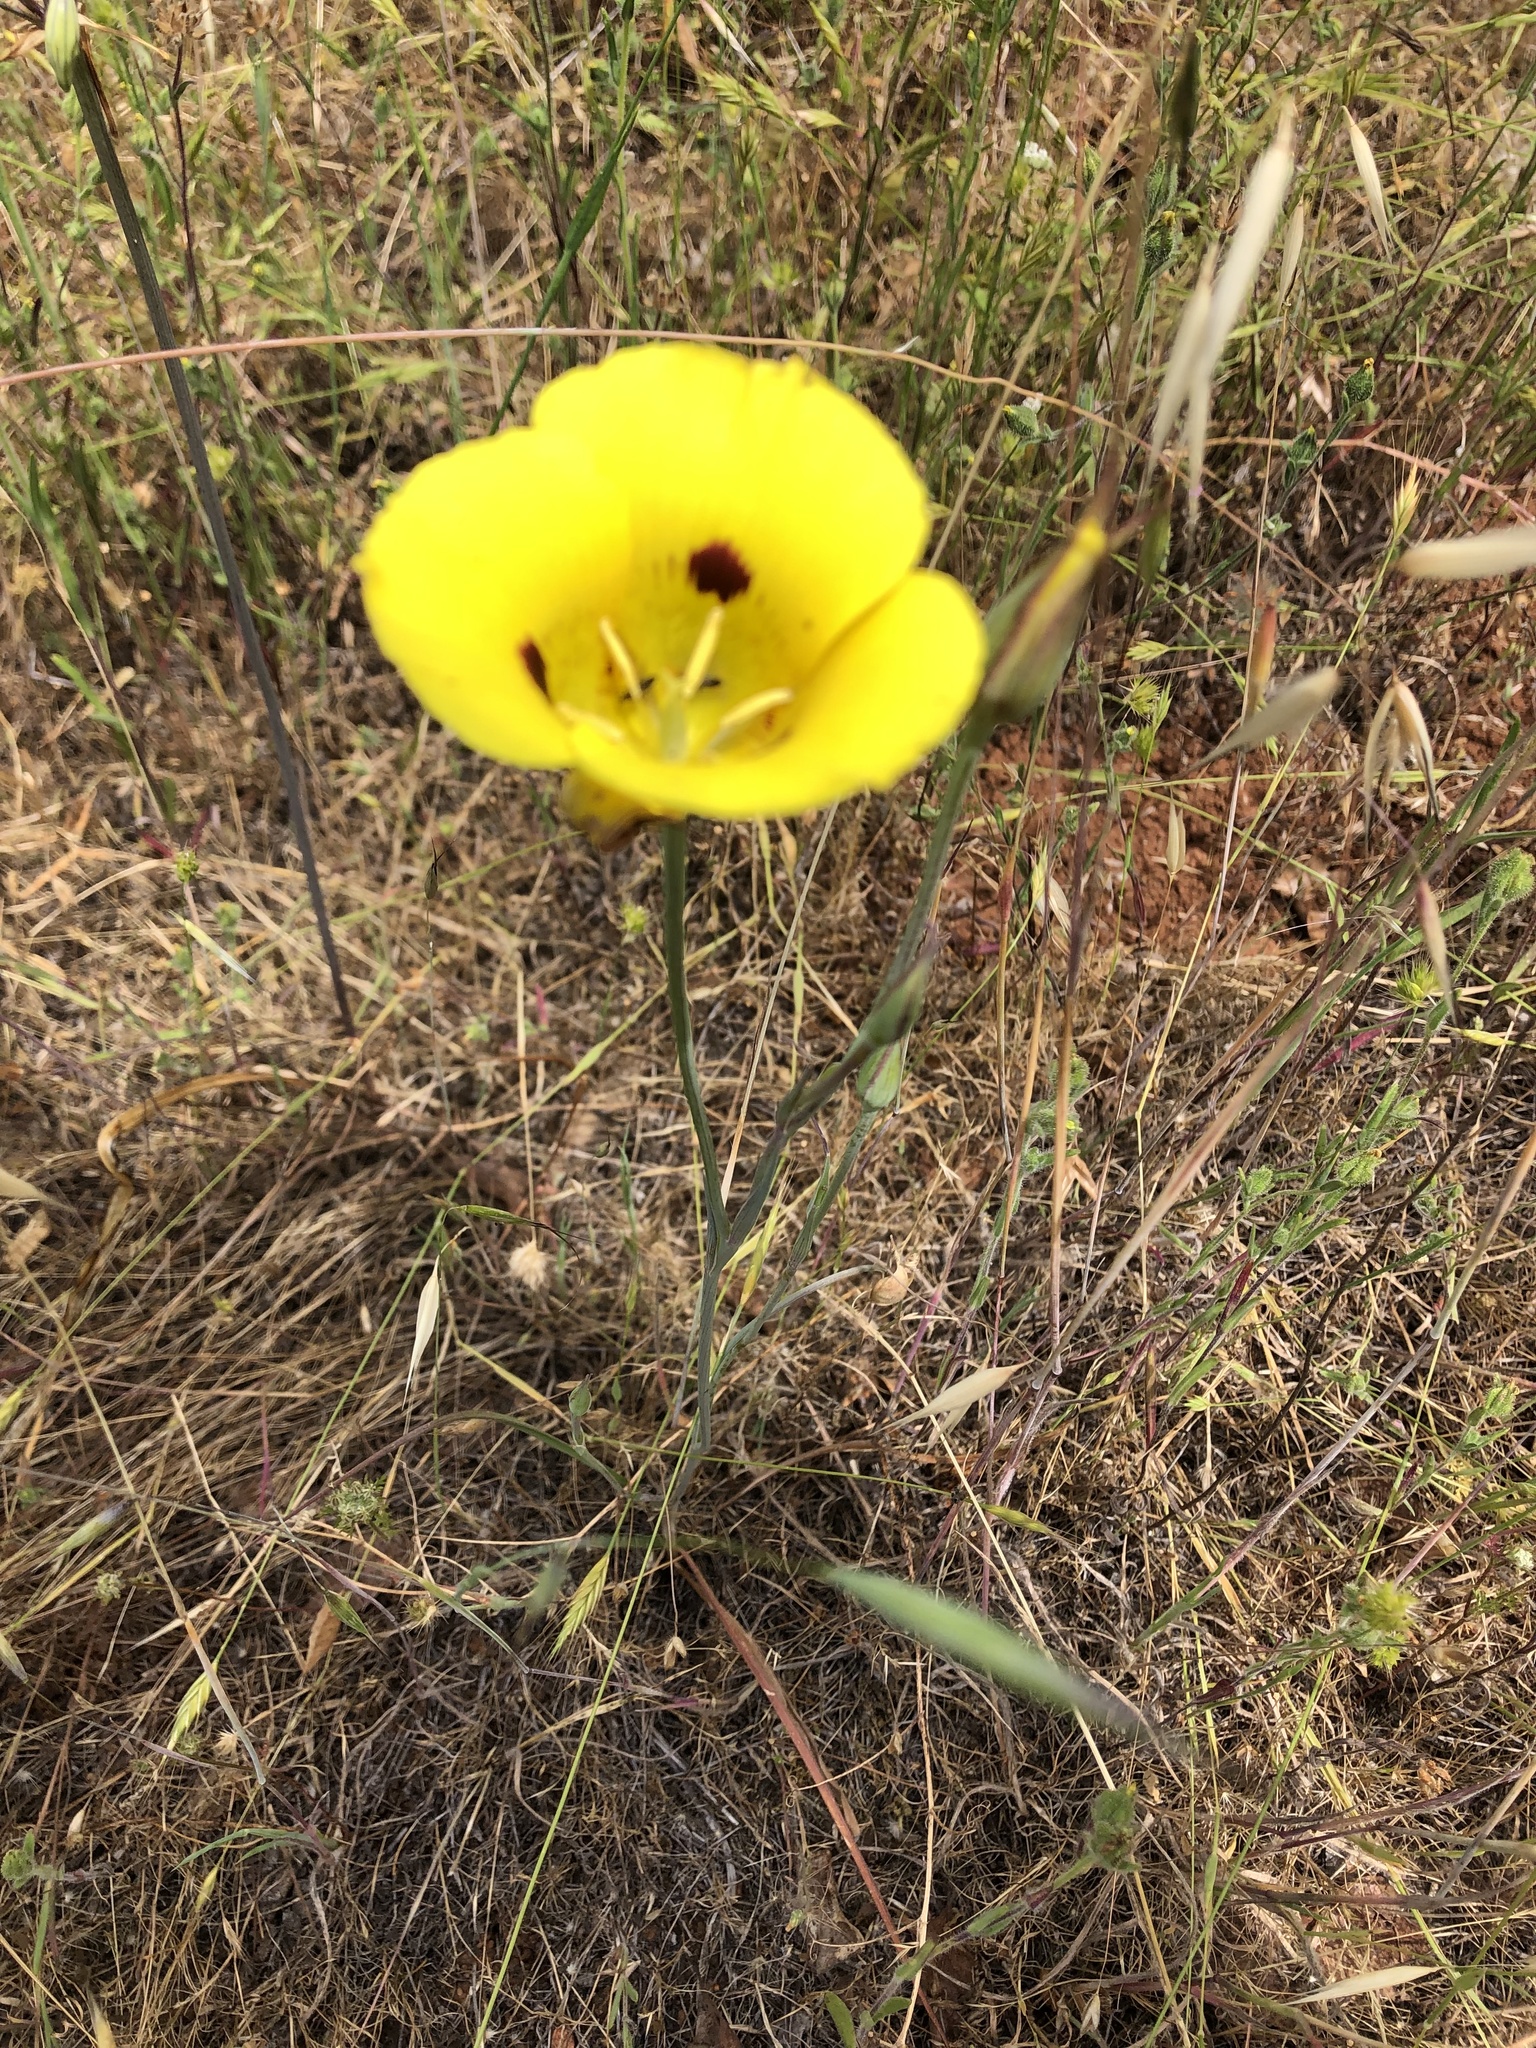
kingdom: Plantae
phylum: Tracheophyta
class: Liliopsida
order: Liliales
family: Liliaceae
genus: Calochortus
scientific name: Calochortus luteus
